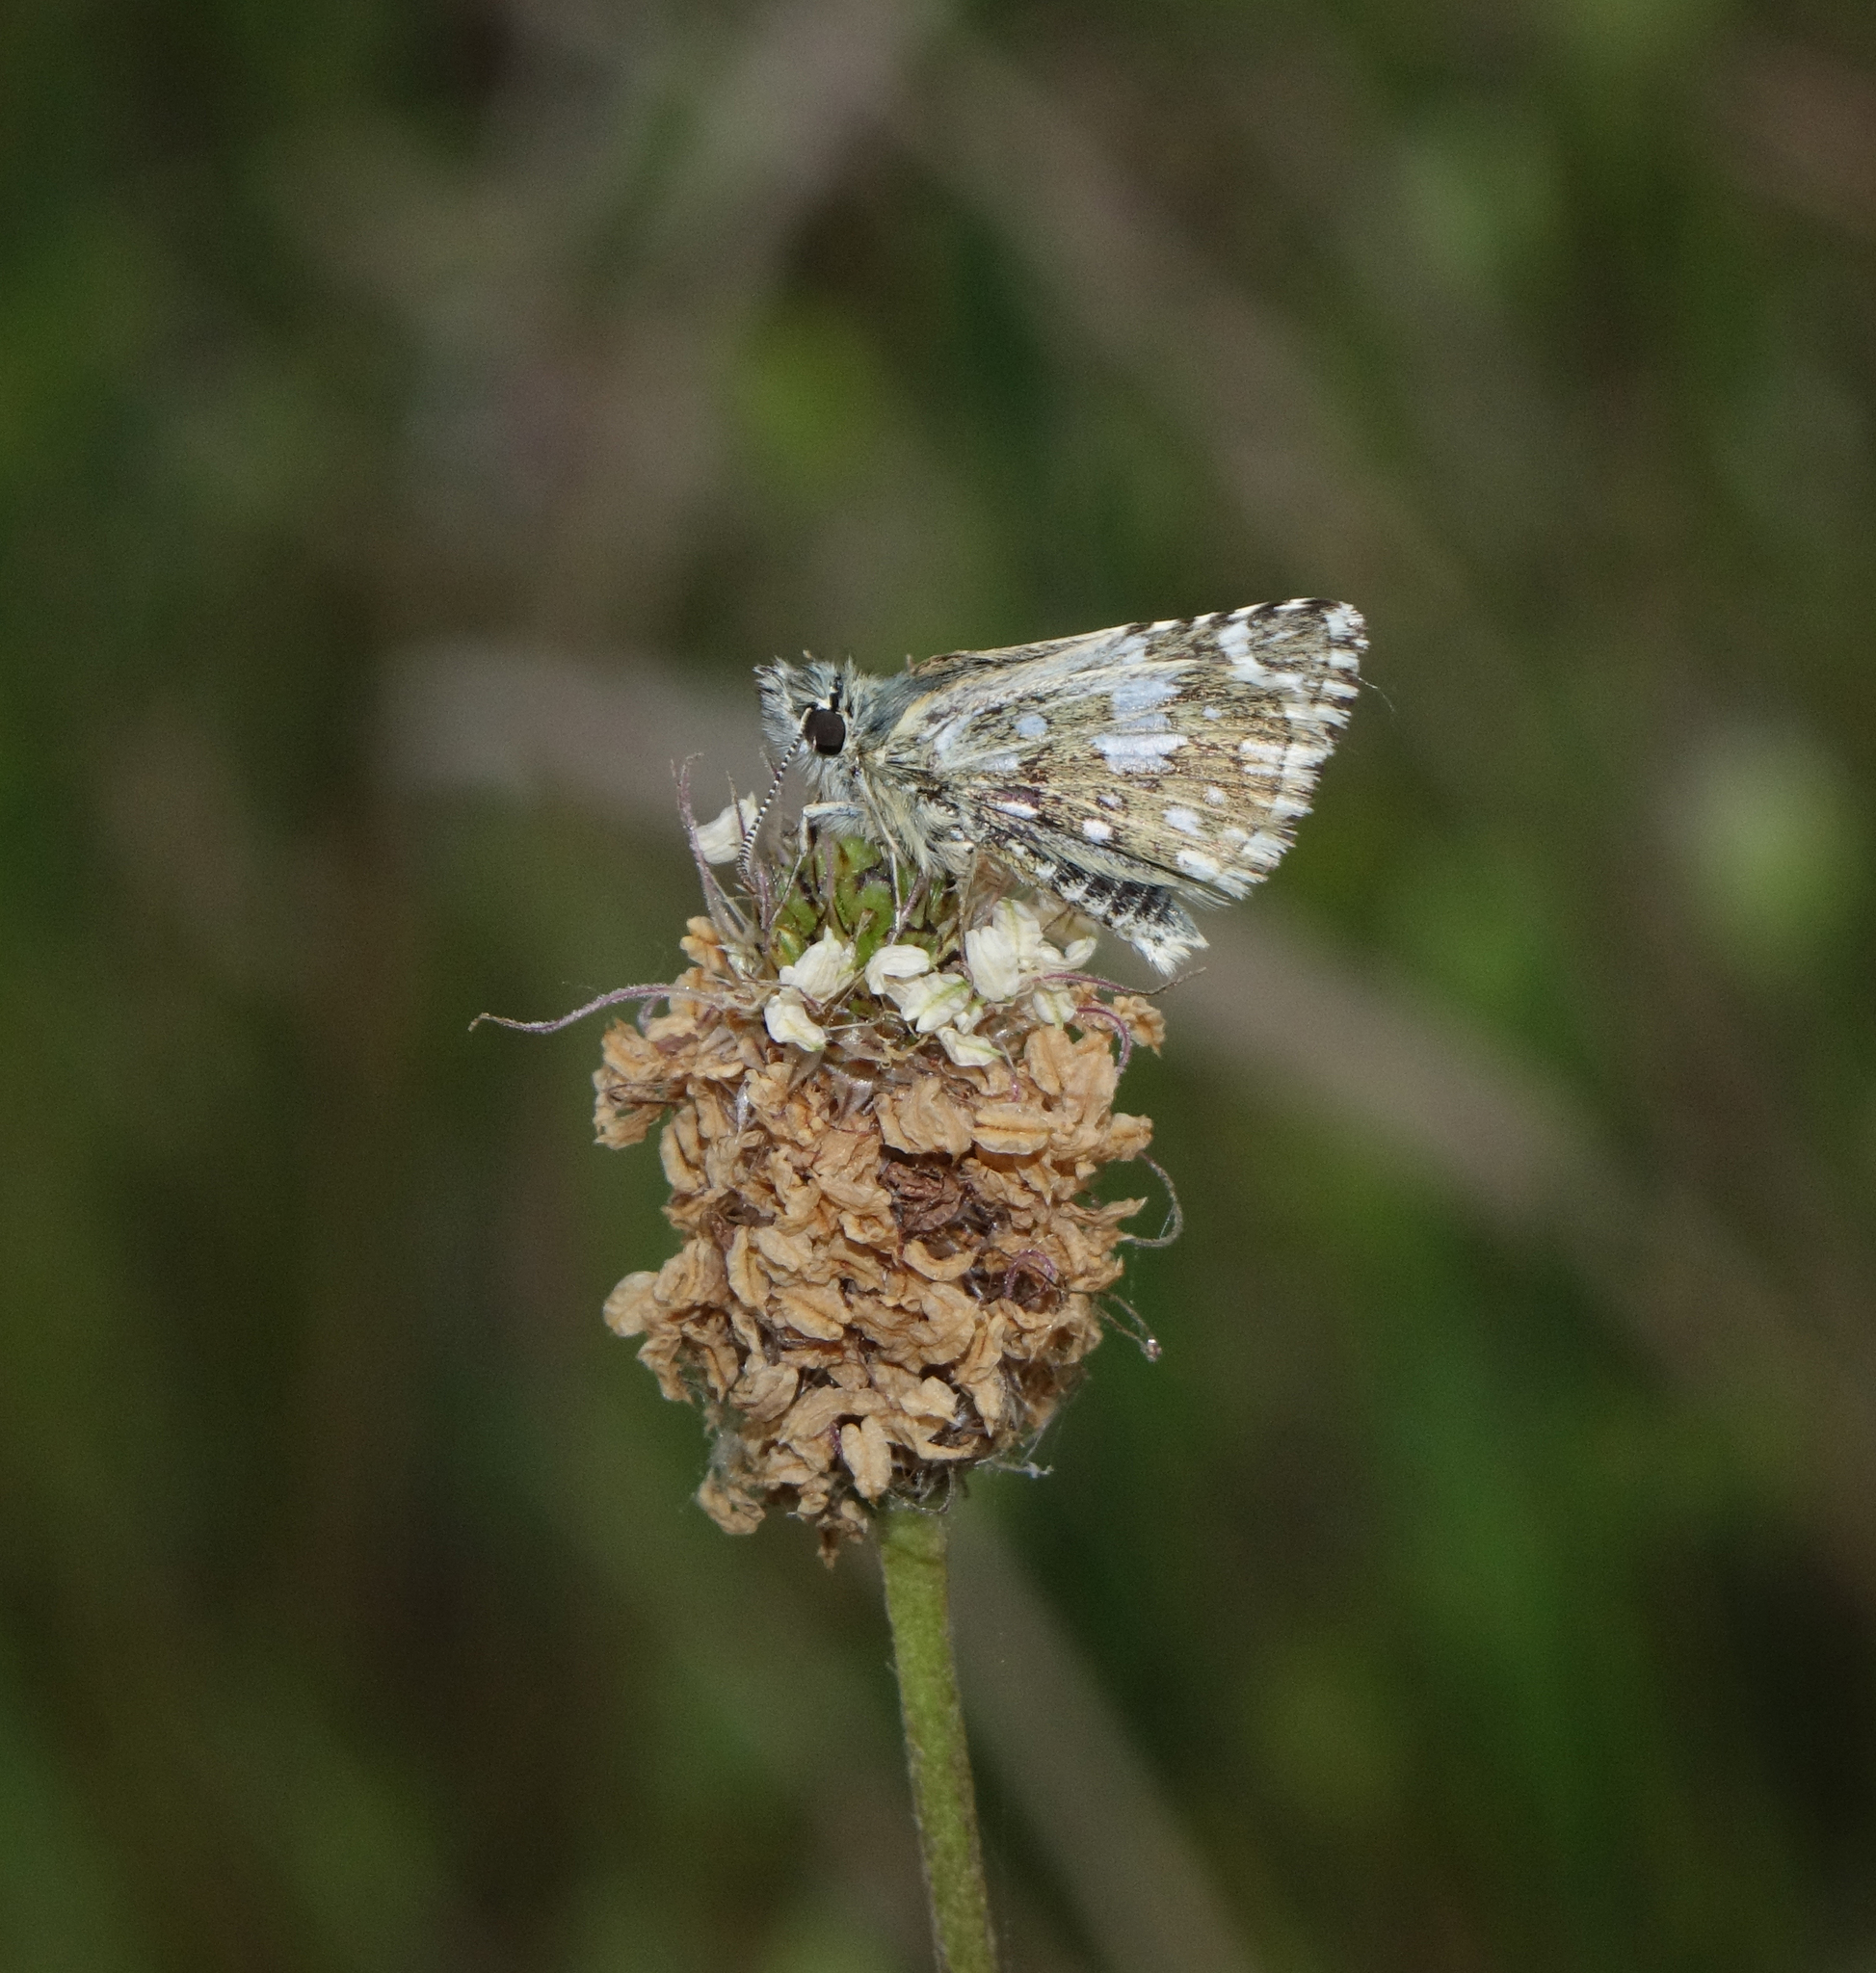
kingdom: Animalia
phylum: Arthropoda
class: Insecta
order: Lepidoptera
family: Hesperiidae
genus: Pyrgus
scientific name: Pyrgus melotis
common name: Aegean skipper
